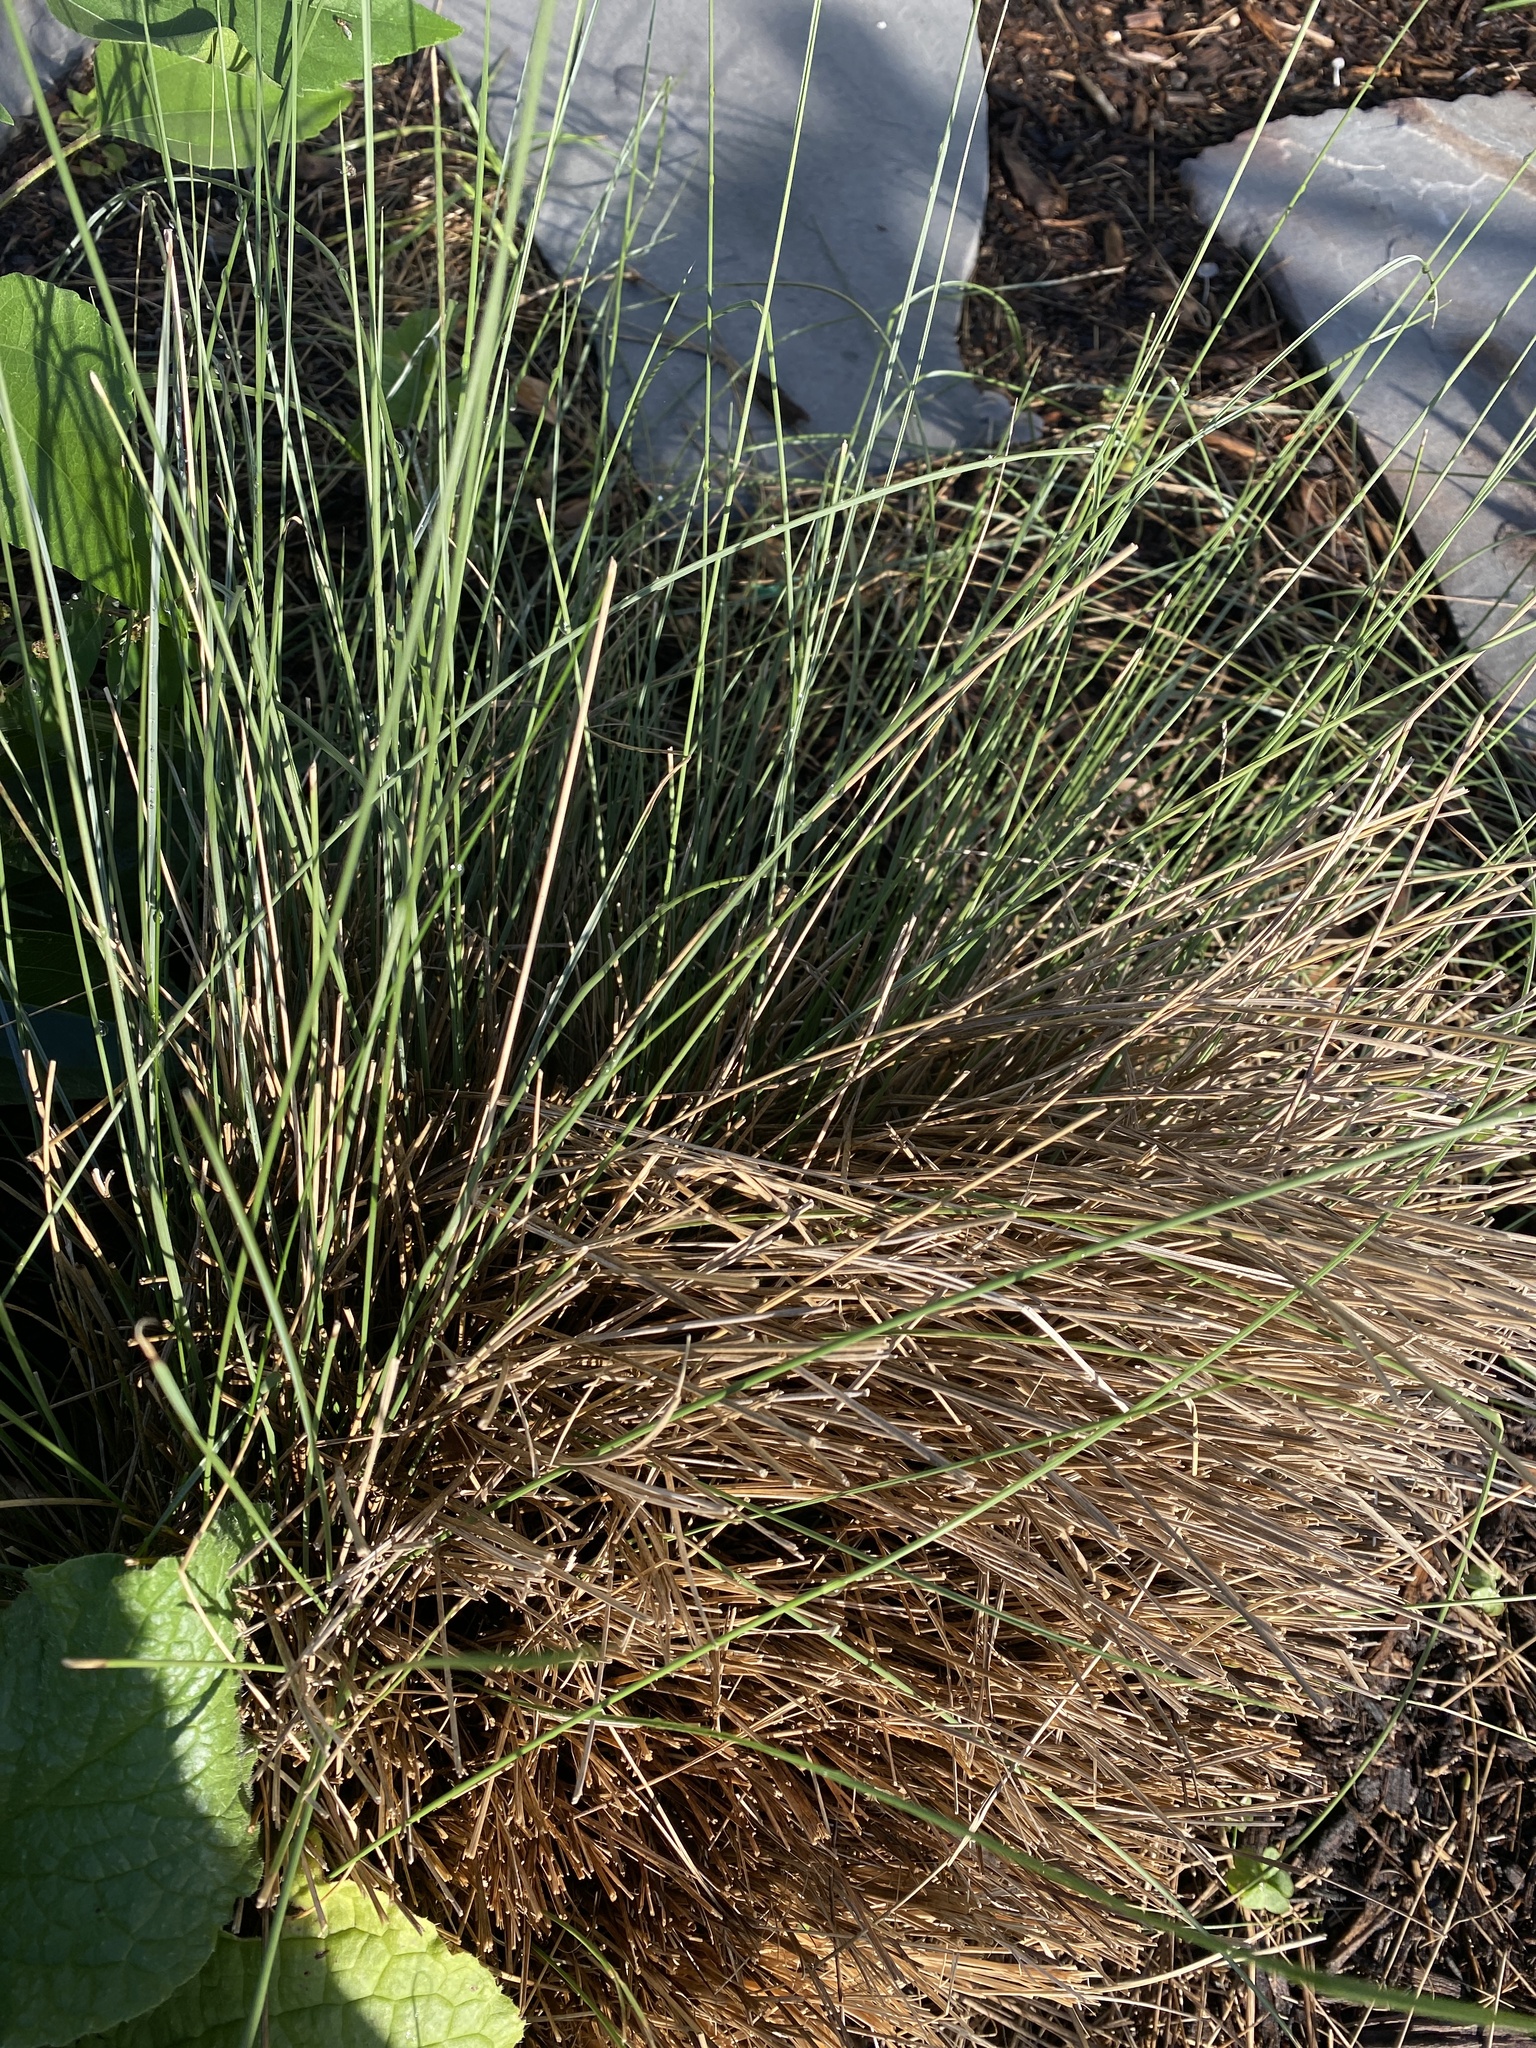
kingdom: Plantae
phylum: Tracheophyta
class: Liliopsida
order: Poales
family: Poaceae
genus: Muhlenbergia
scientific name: Muhlenbergia capillaris
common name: Purple grass
